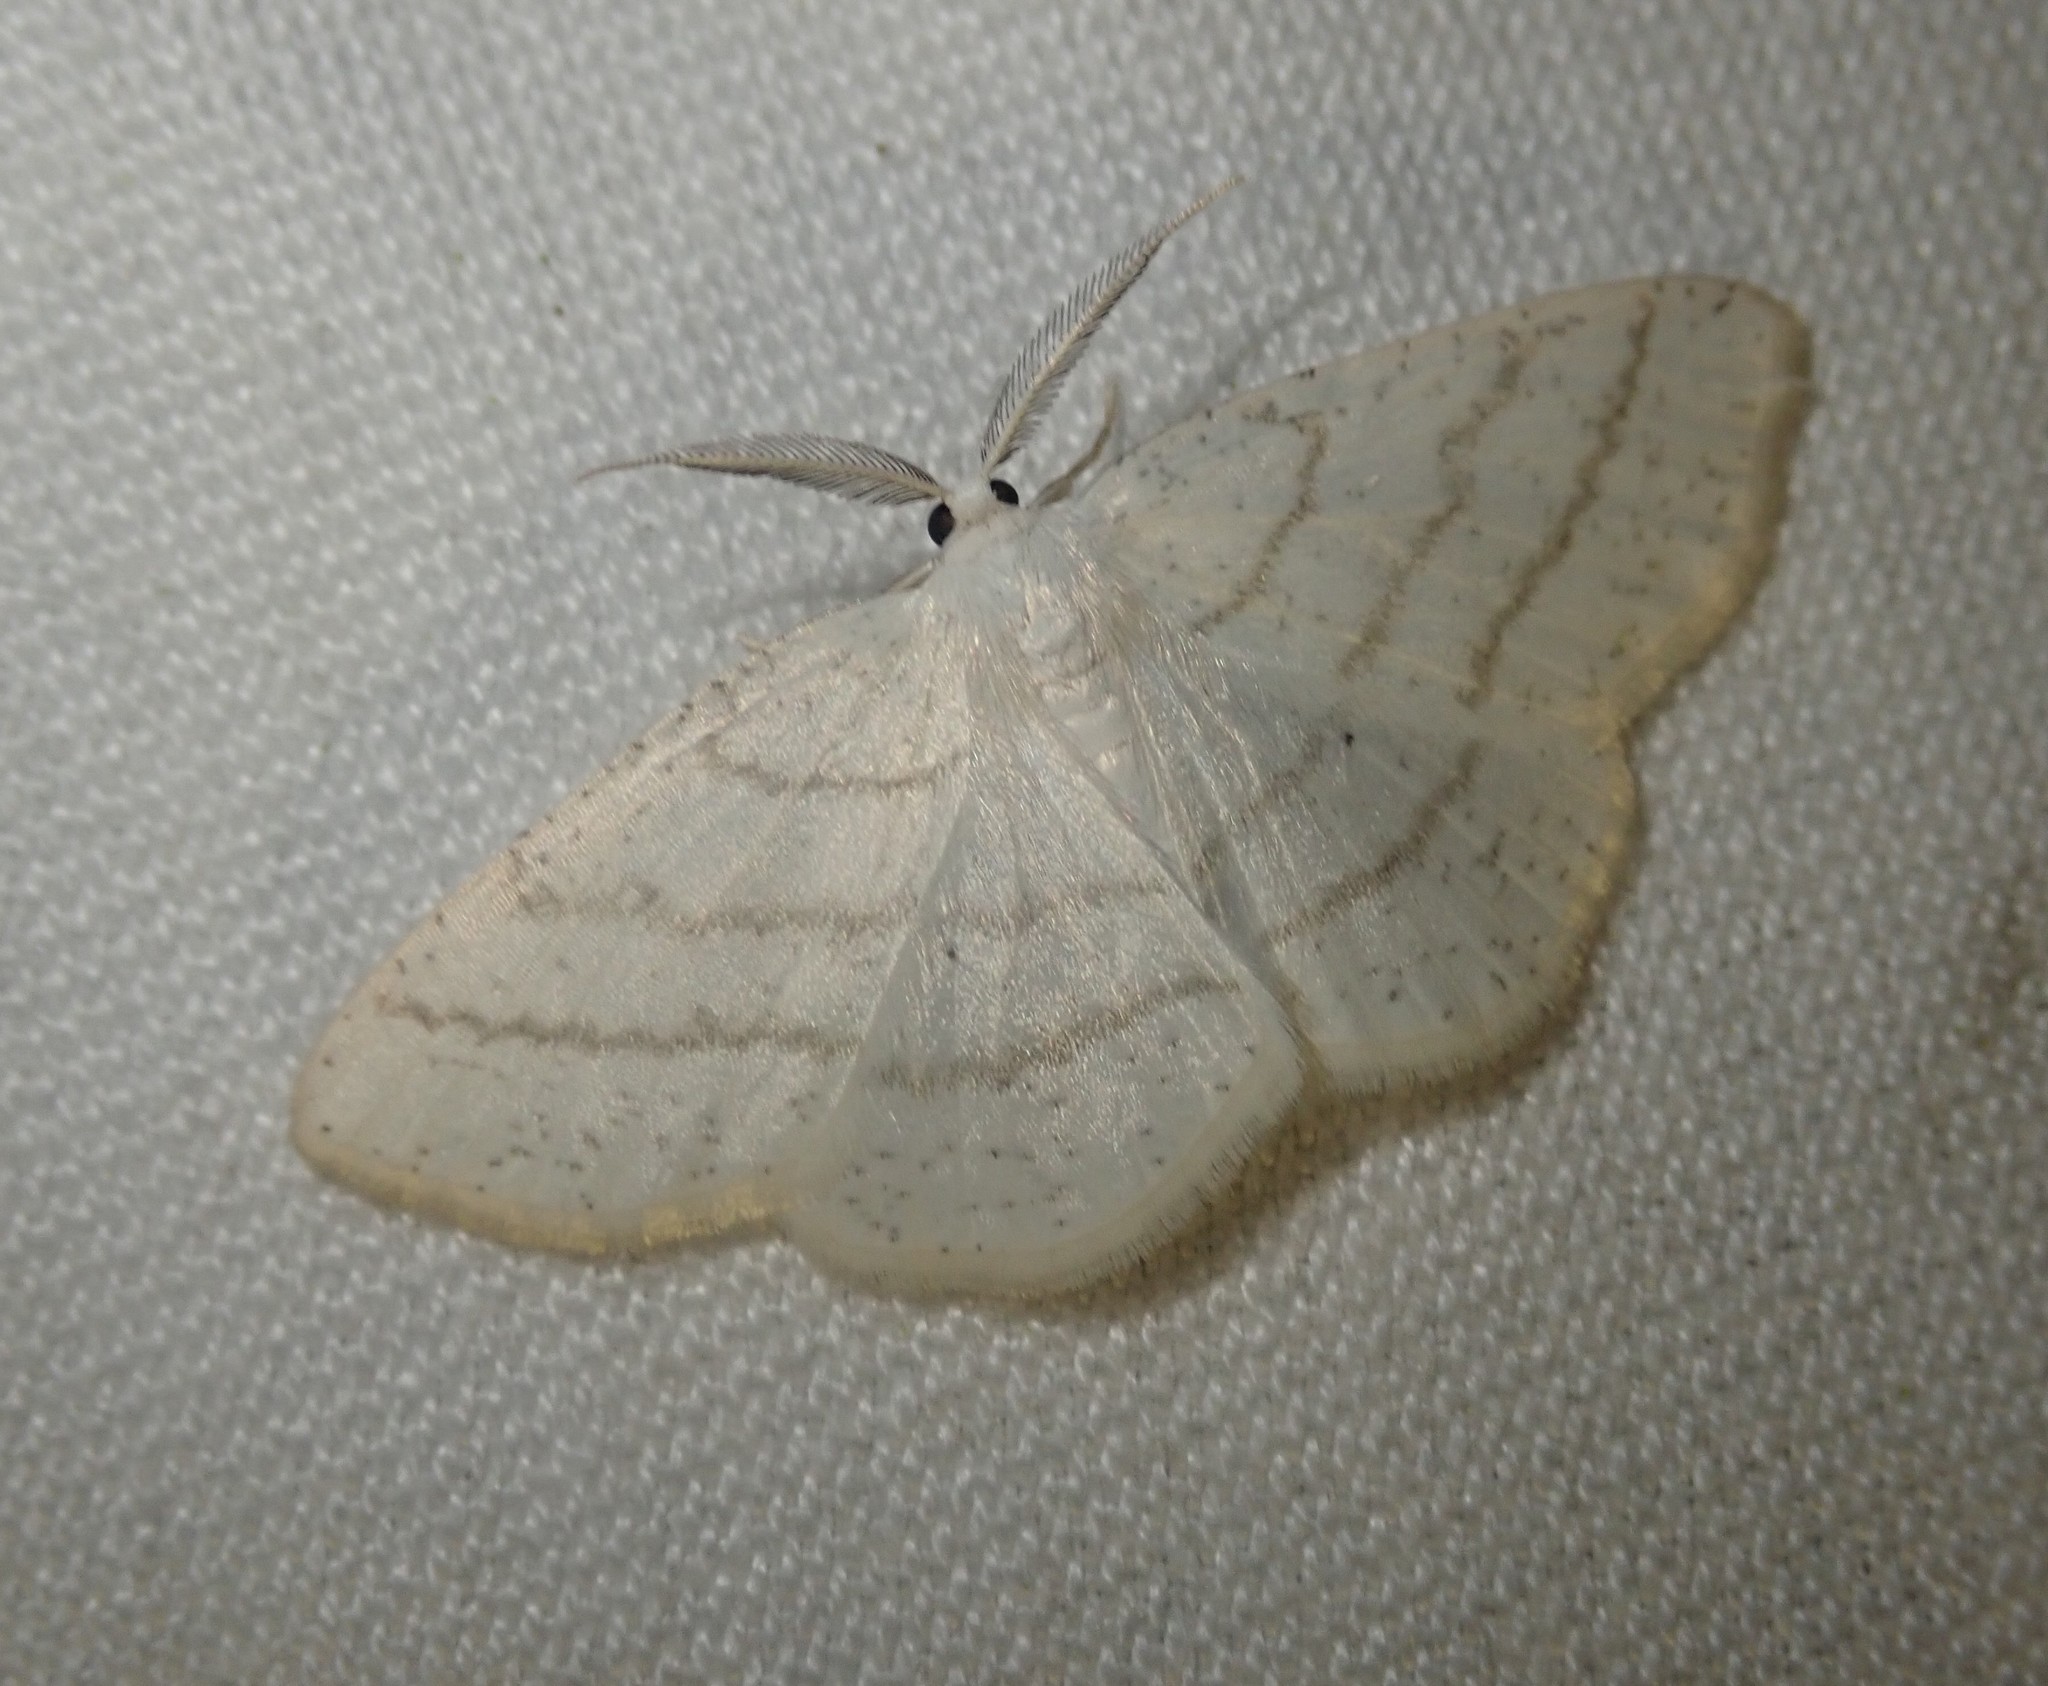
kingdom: Animalia
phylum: Arthropoda
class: Insecta
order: Lepidoptera
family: Geometridae
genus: Cabera
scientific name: Cabera pusaria
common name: Common white wave
